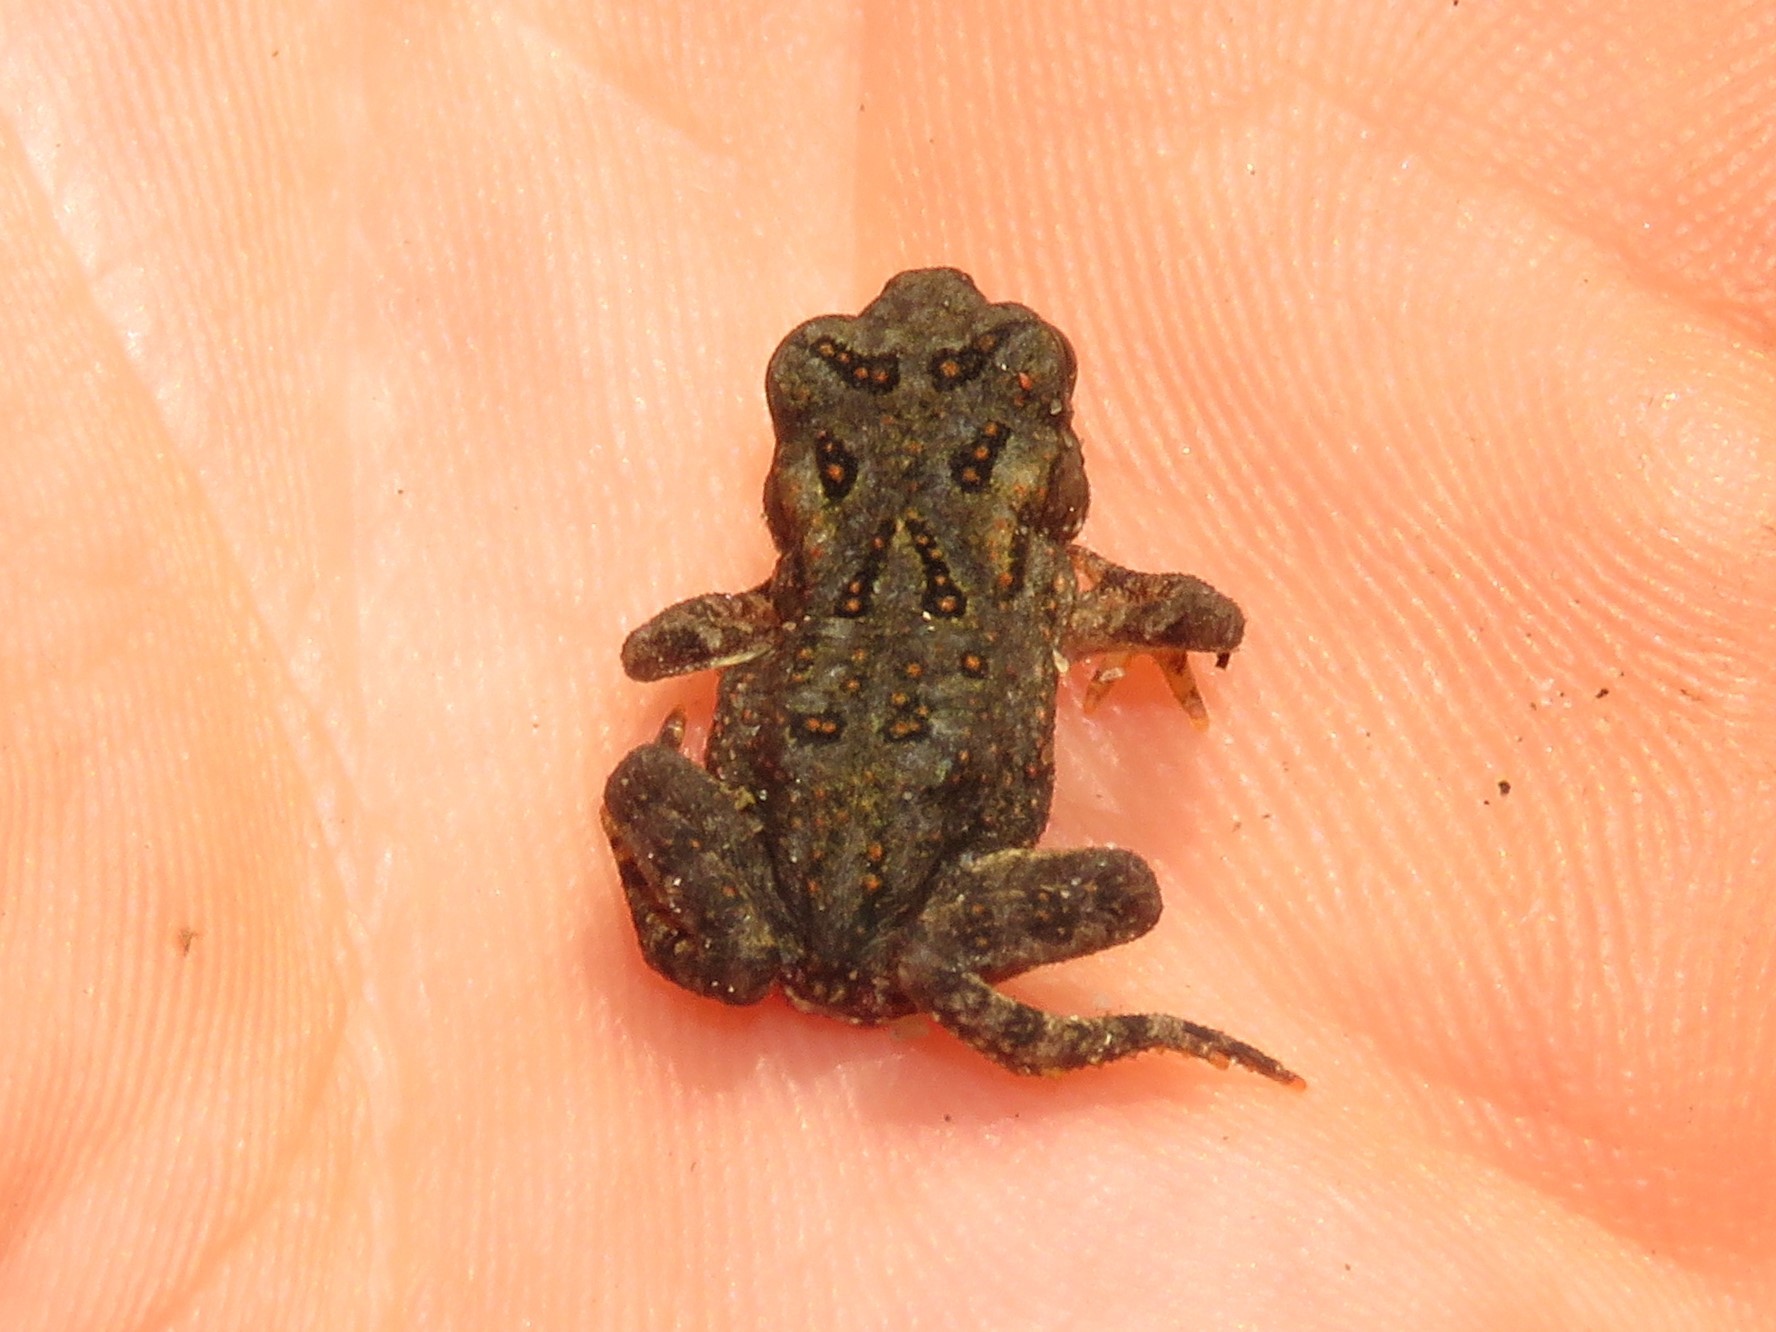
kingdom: Animalia
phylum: Chordata
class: Amphibia
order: Anura
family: Bufonidae
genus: Anaxyrus
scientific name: Anaxyrus americanus
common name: American toad
